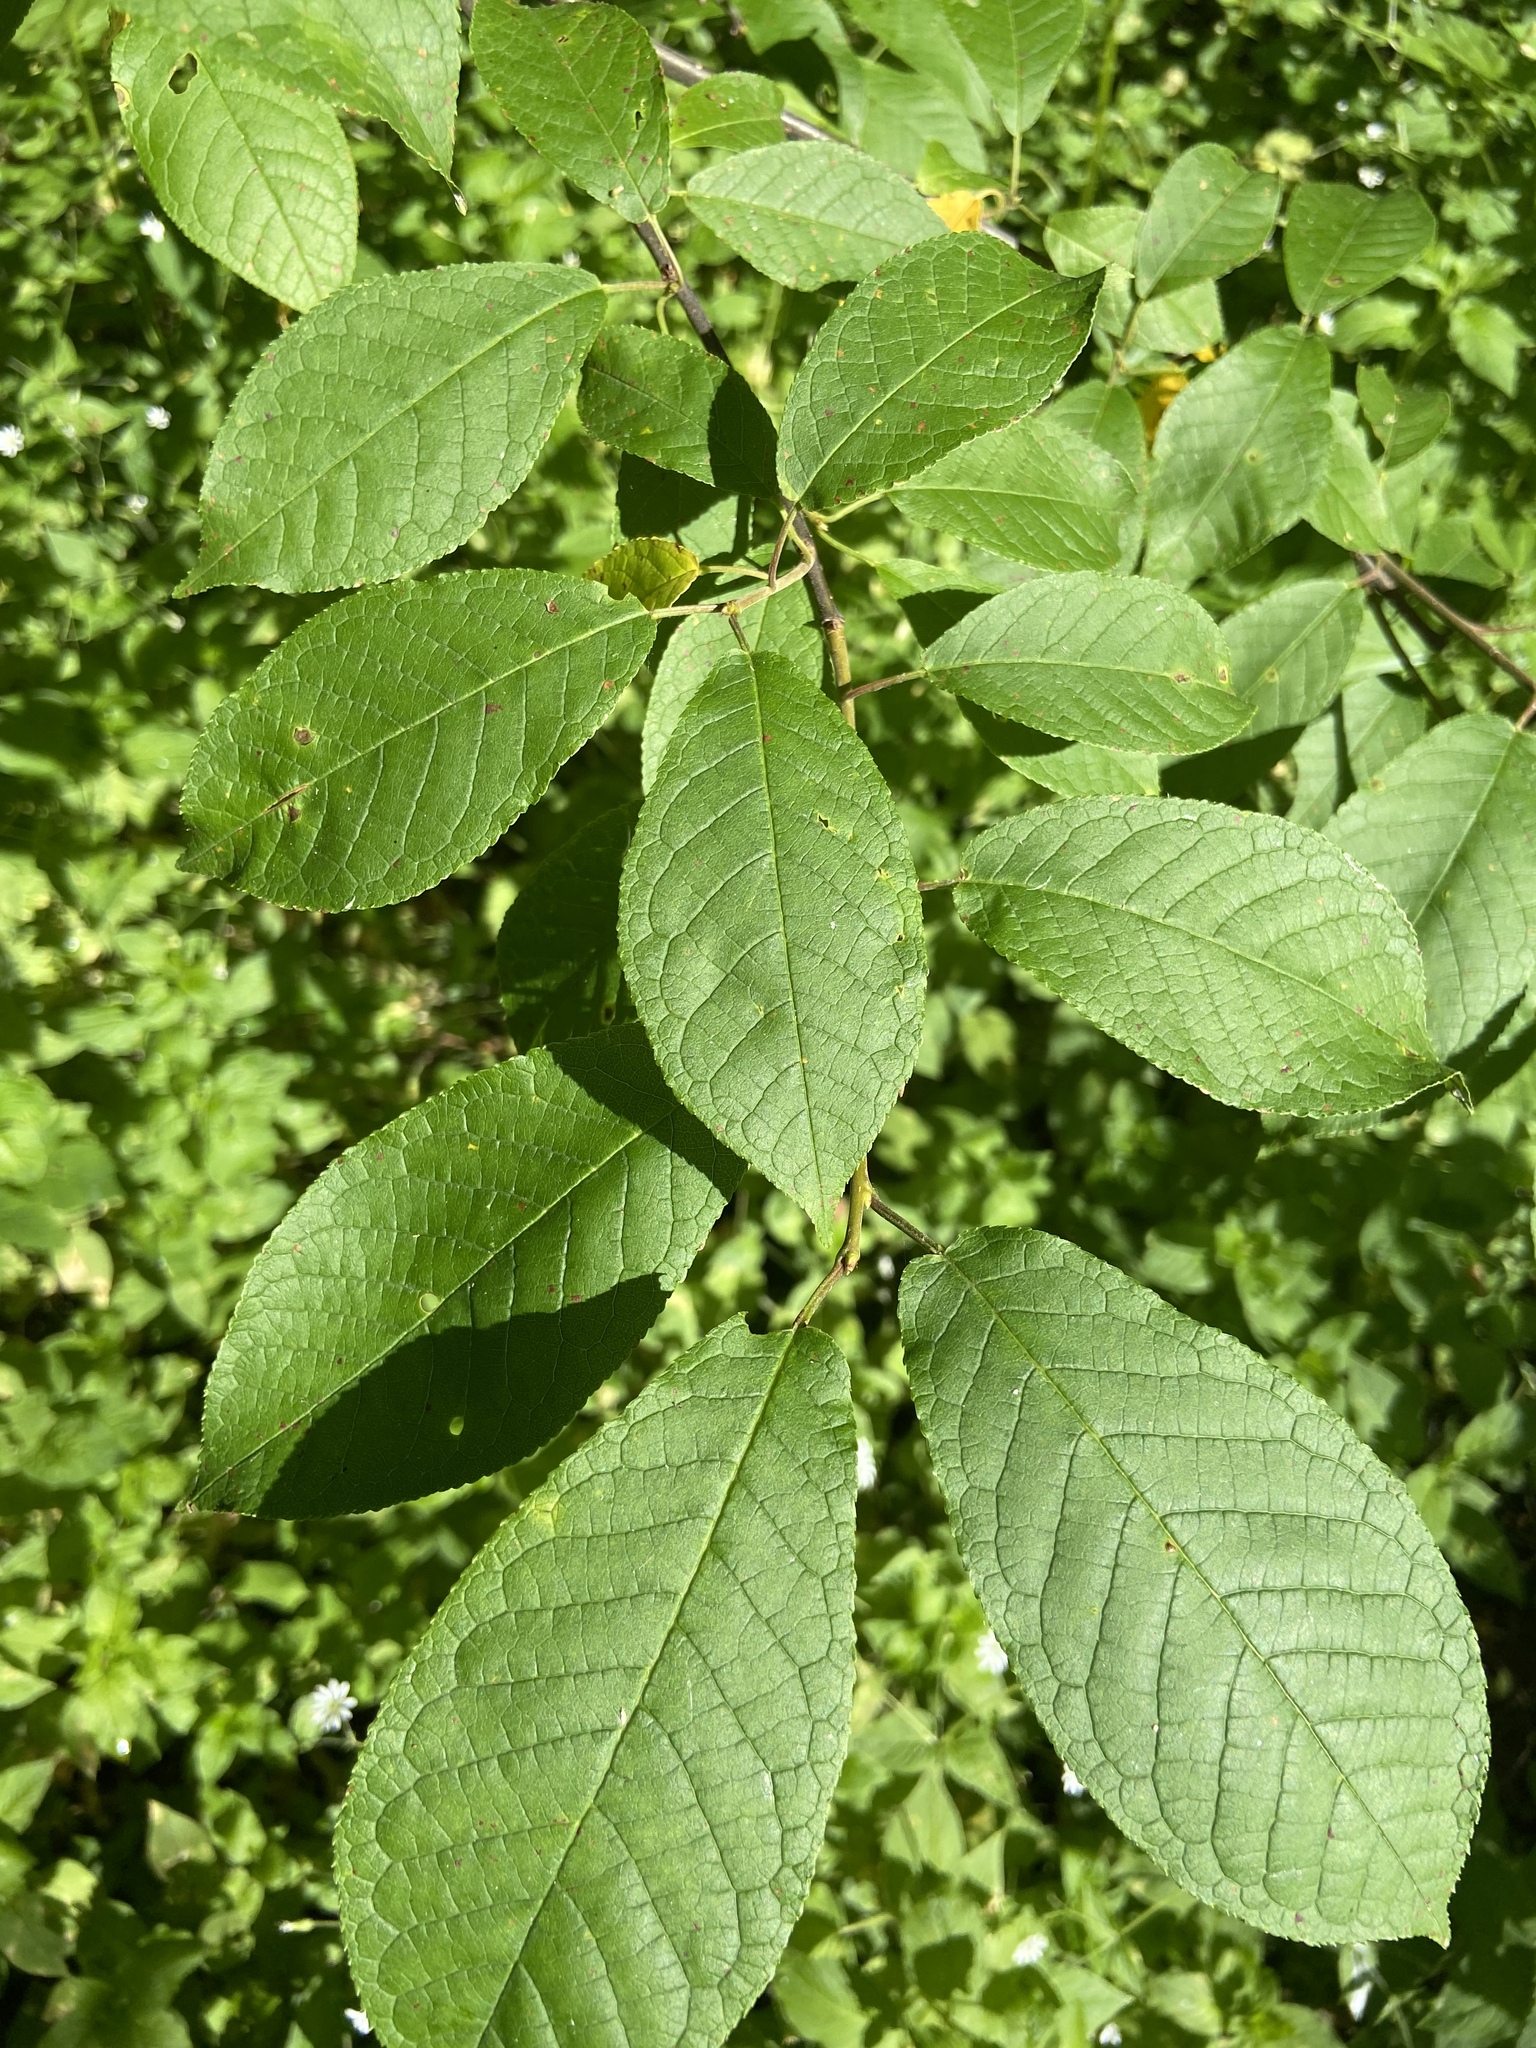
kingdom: Plantae
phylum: Tracheophyta
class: Magnoliopsida
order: Rosales
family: Rosaceae
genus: Prunus
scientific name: Prunus padus
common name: Bird cherry
